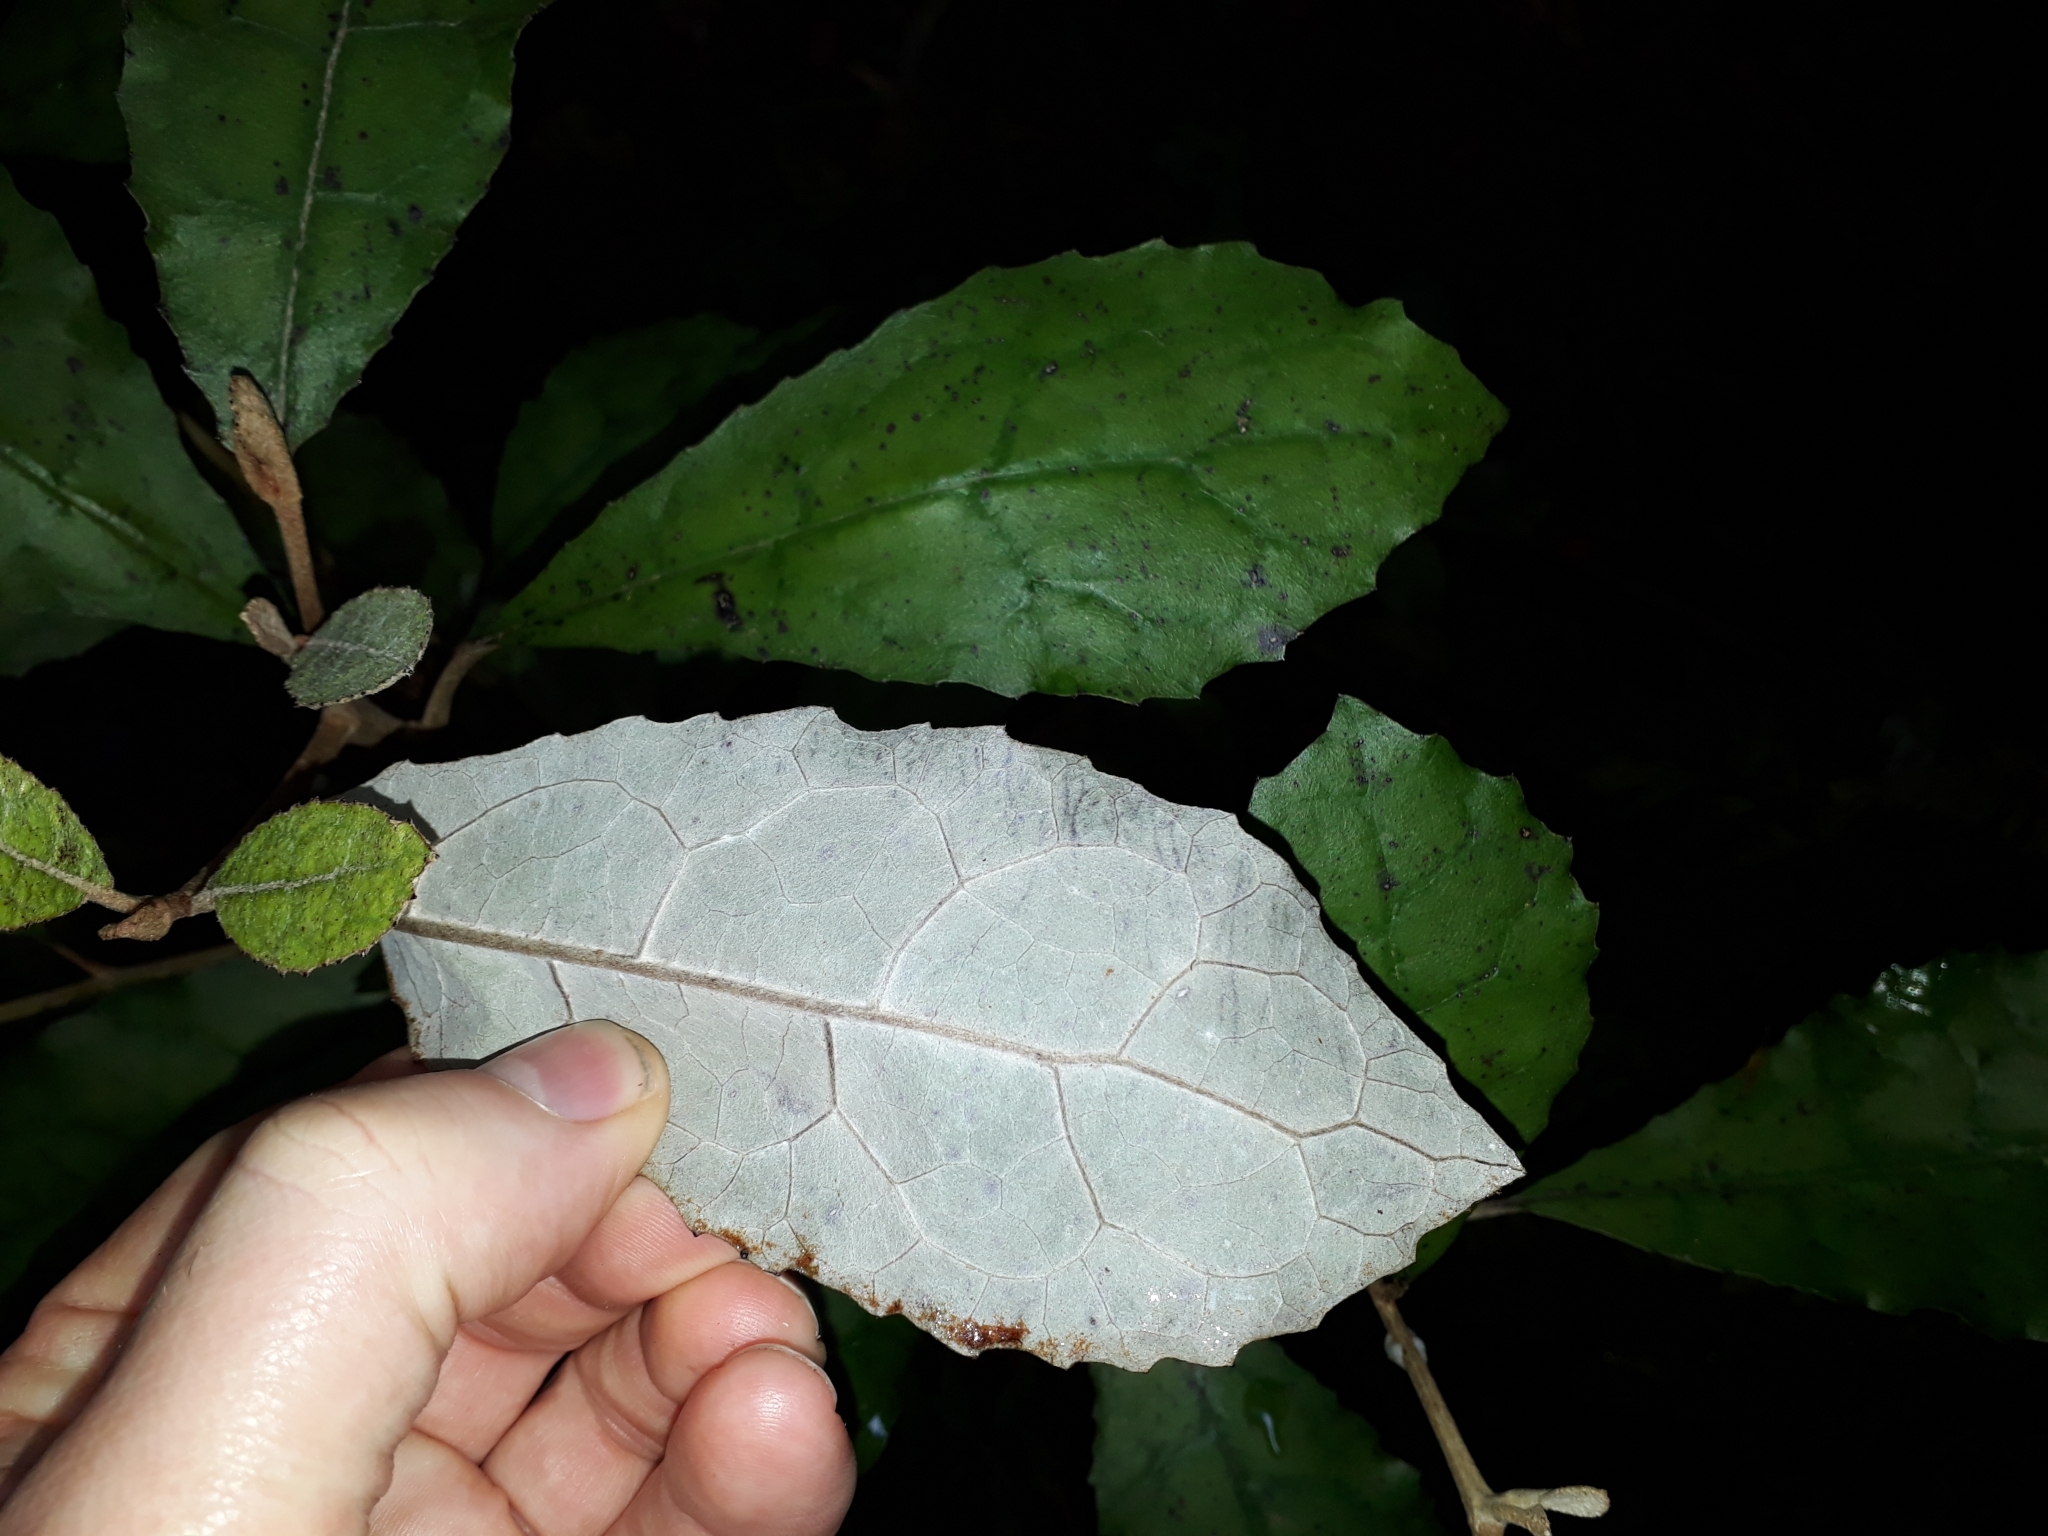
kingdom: Plantae
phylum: Tracheophyta
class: Magnoliopsida
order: Asterales
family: Asteraceae
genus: Olearia
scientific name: Olearia rani
